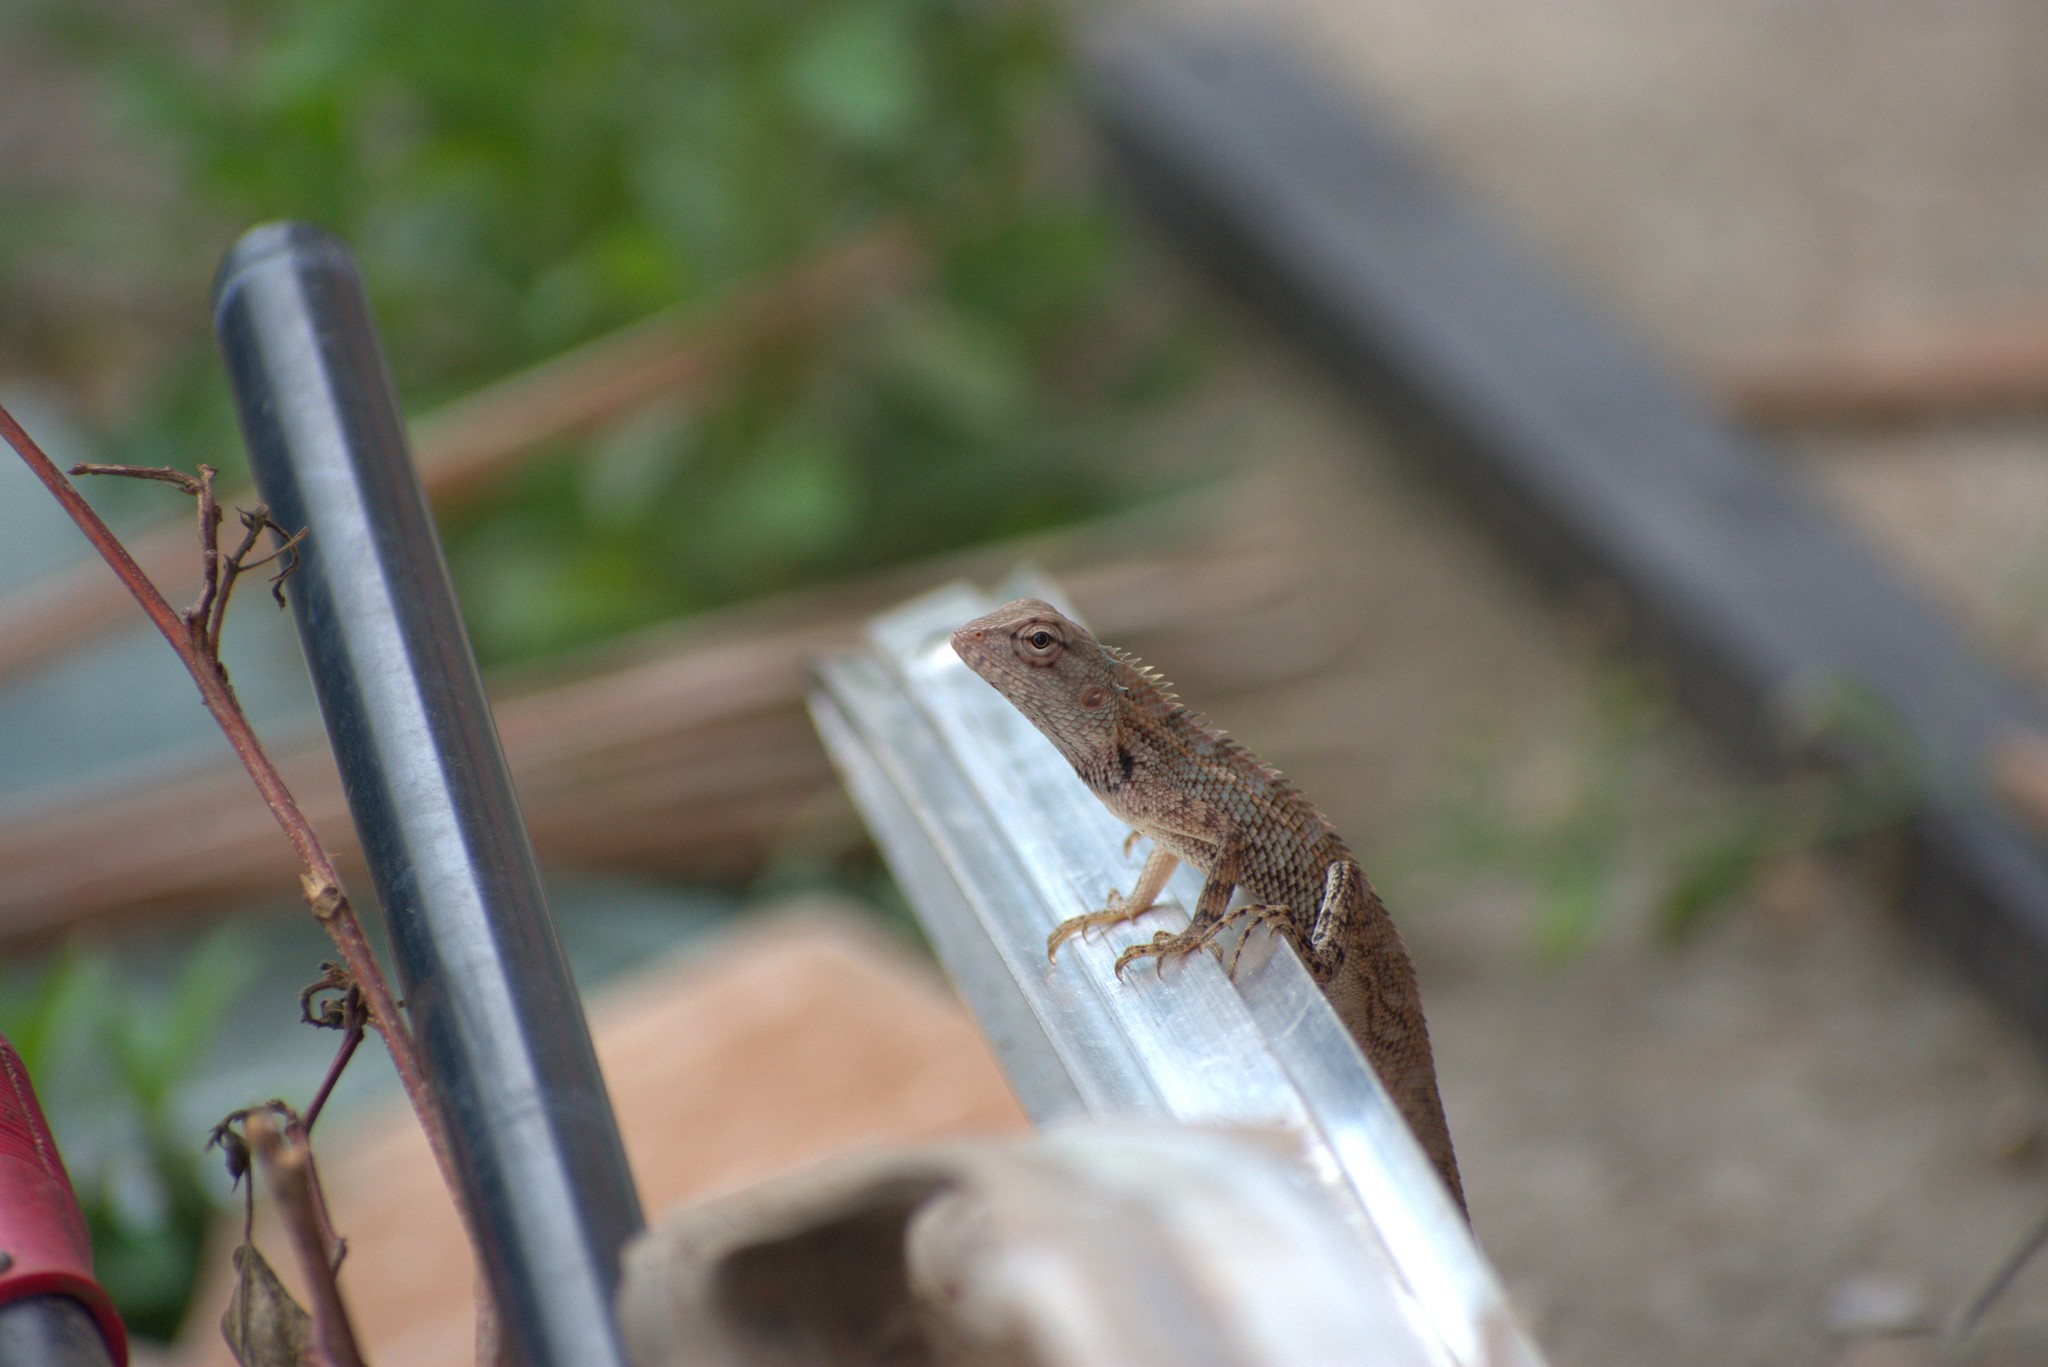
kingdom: Animalia
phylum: Chordata
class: Squamata
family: Agamidae
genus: Calotes
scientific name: Calotes versicolor
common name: Oriental garden lizard
